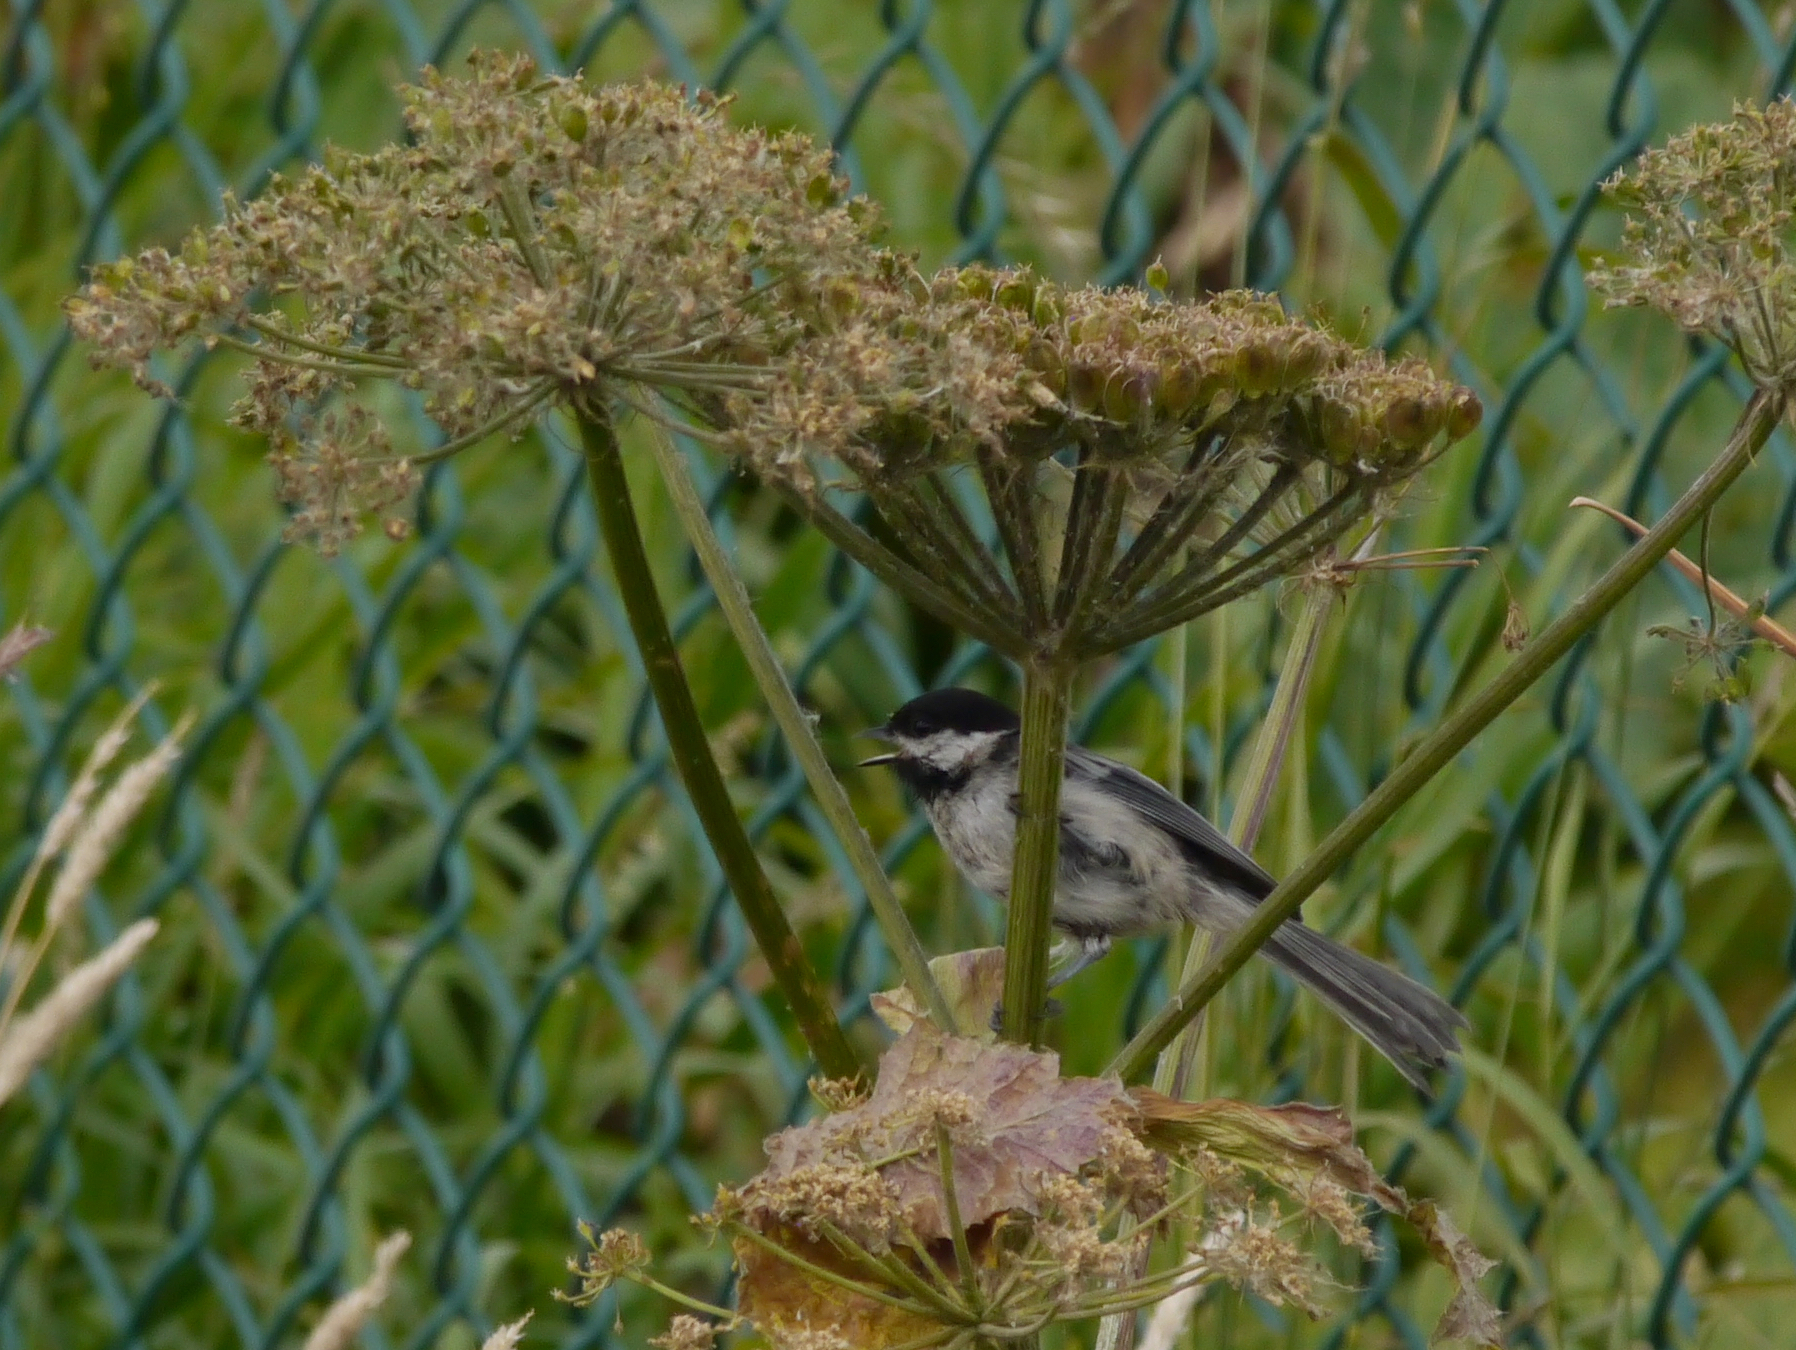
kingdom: Animalia
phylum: Chordata
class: Aves
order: Passeriformes
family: Paridae
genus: Poecile
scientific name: Poecile atricapillus
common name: Black-capped chickadee
